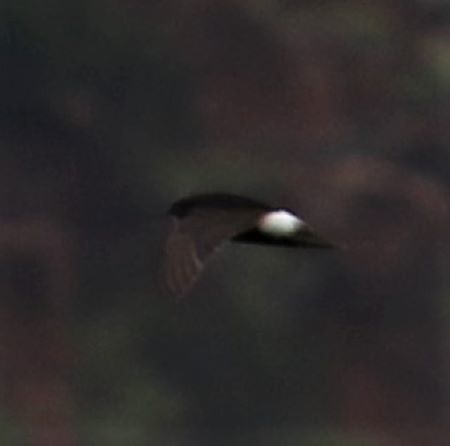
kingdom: Animalia
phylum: Chordata
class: Aves
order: Apodiformes
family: Apodidae
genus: Apus
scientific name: Apus affinis
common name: Little swift
